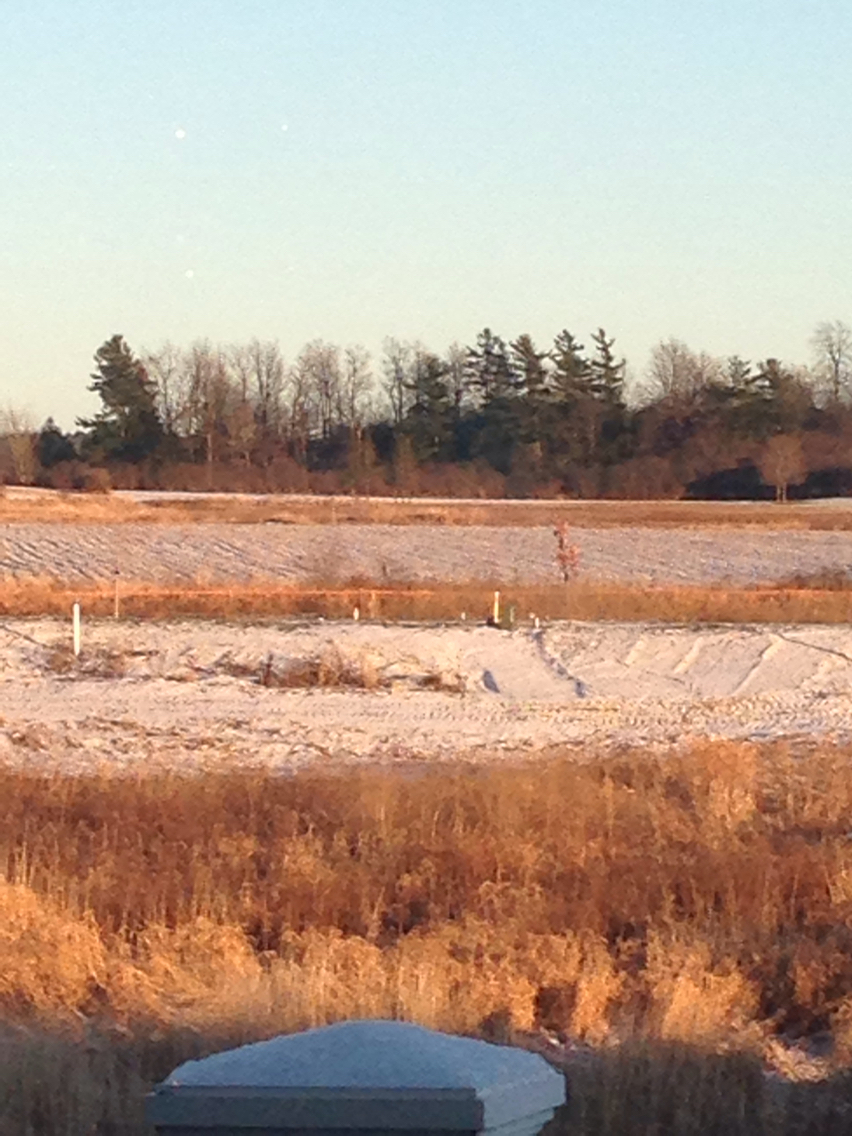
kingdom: Plantae
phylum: Tracheophyta
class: Pinopsida
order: Pinales
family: Pinaceae
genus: Pinus
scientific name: Pinus strobus
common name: Weymouth pine
